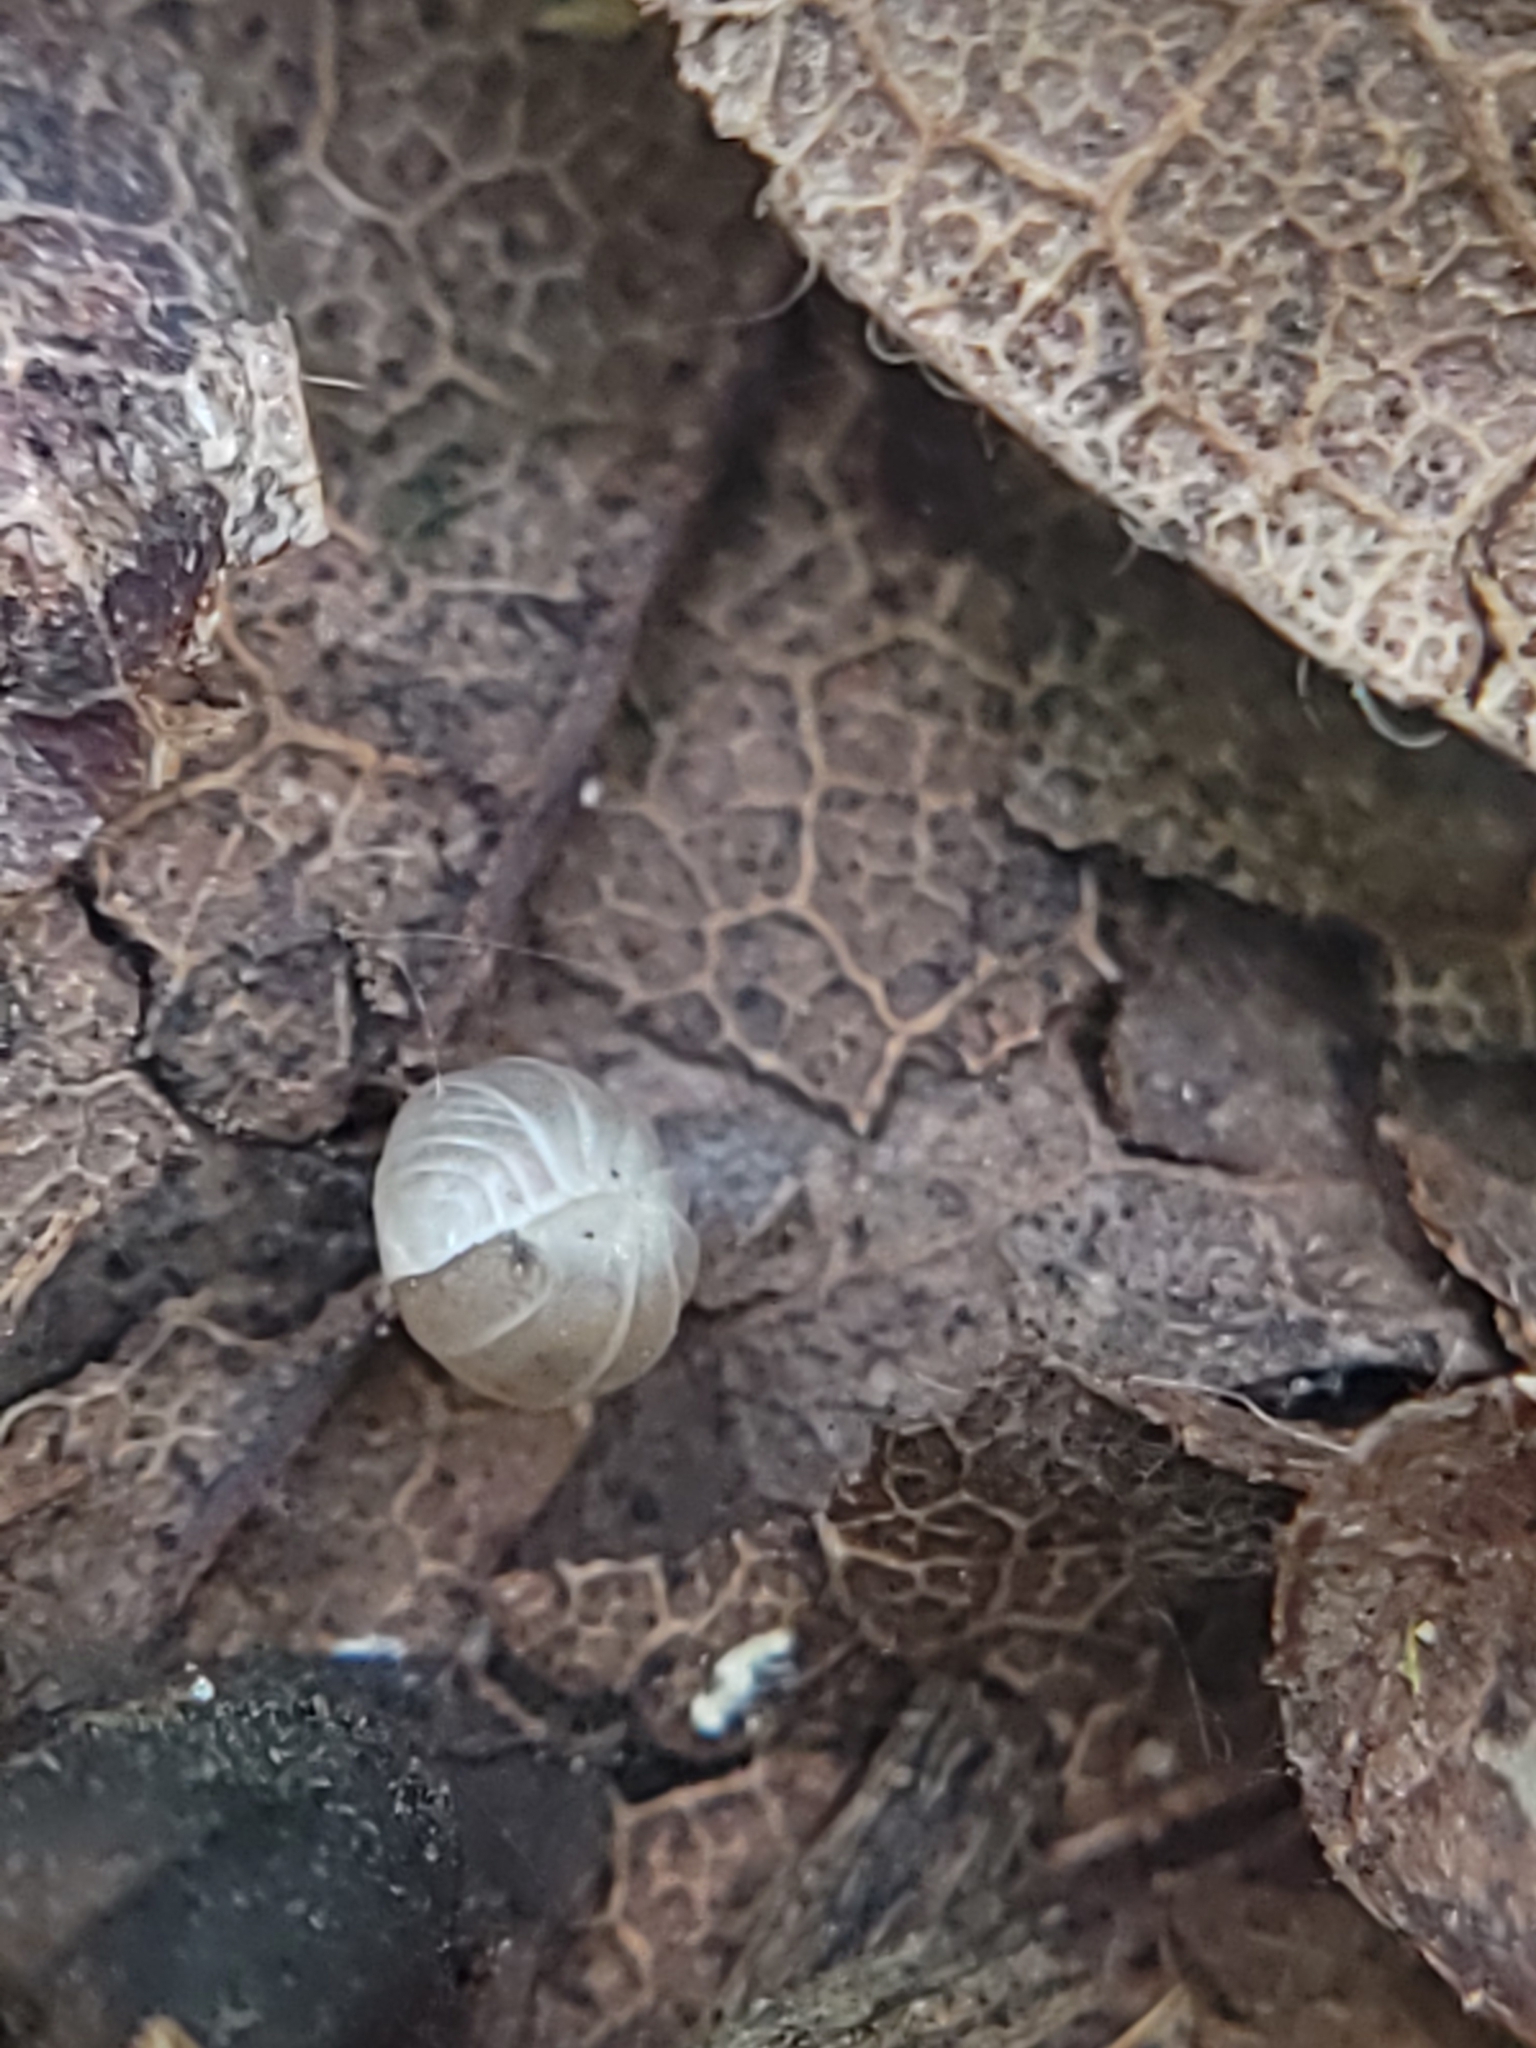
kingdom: Animalia
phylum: Arthropoda
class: Malacostraca
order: Isopoda
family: Armadillidae
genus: Venezillo
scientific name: Venezillo microphthalmus
